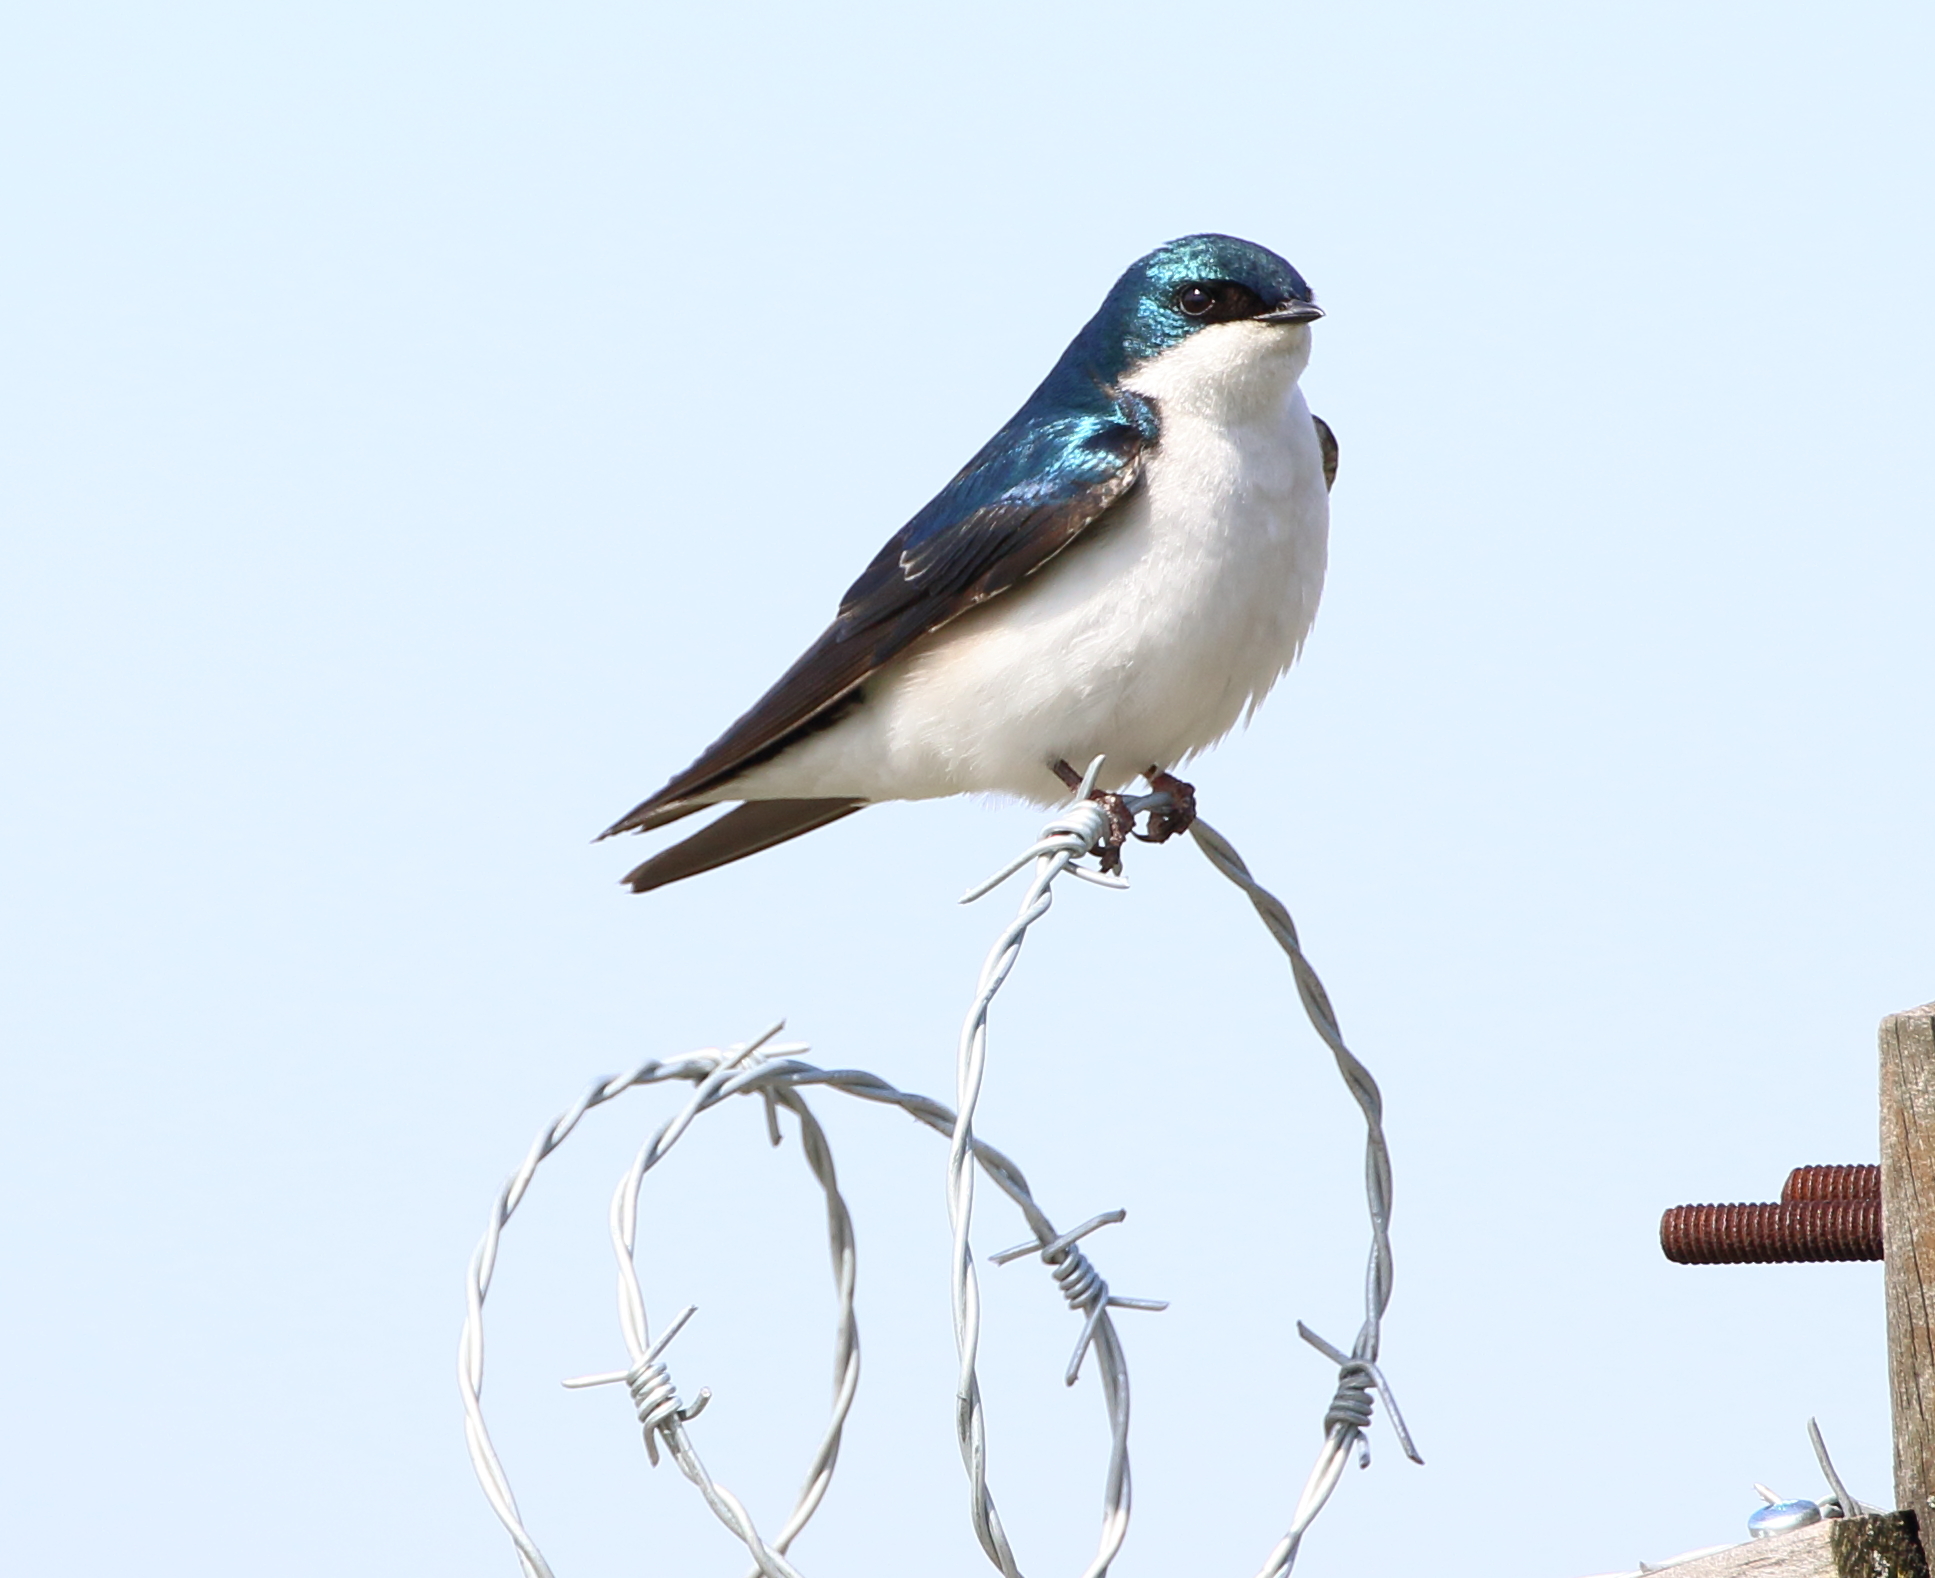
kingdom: Animalia
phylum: Chordata
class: Aves
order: Passeriformes
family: Hirundinidae
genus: Tachycineta
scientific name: Tachycineta bicolor
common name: Tree swallow
